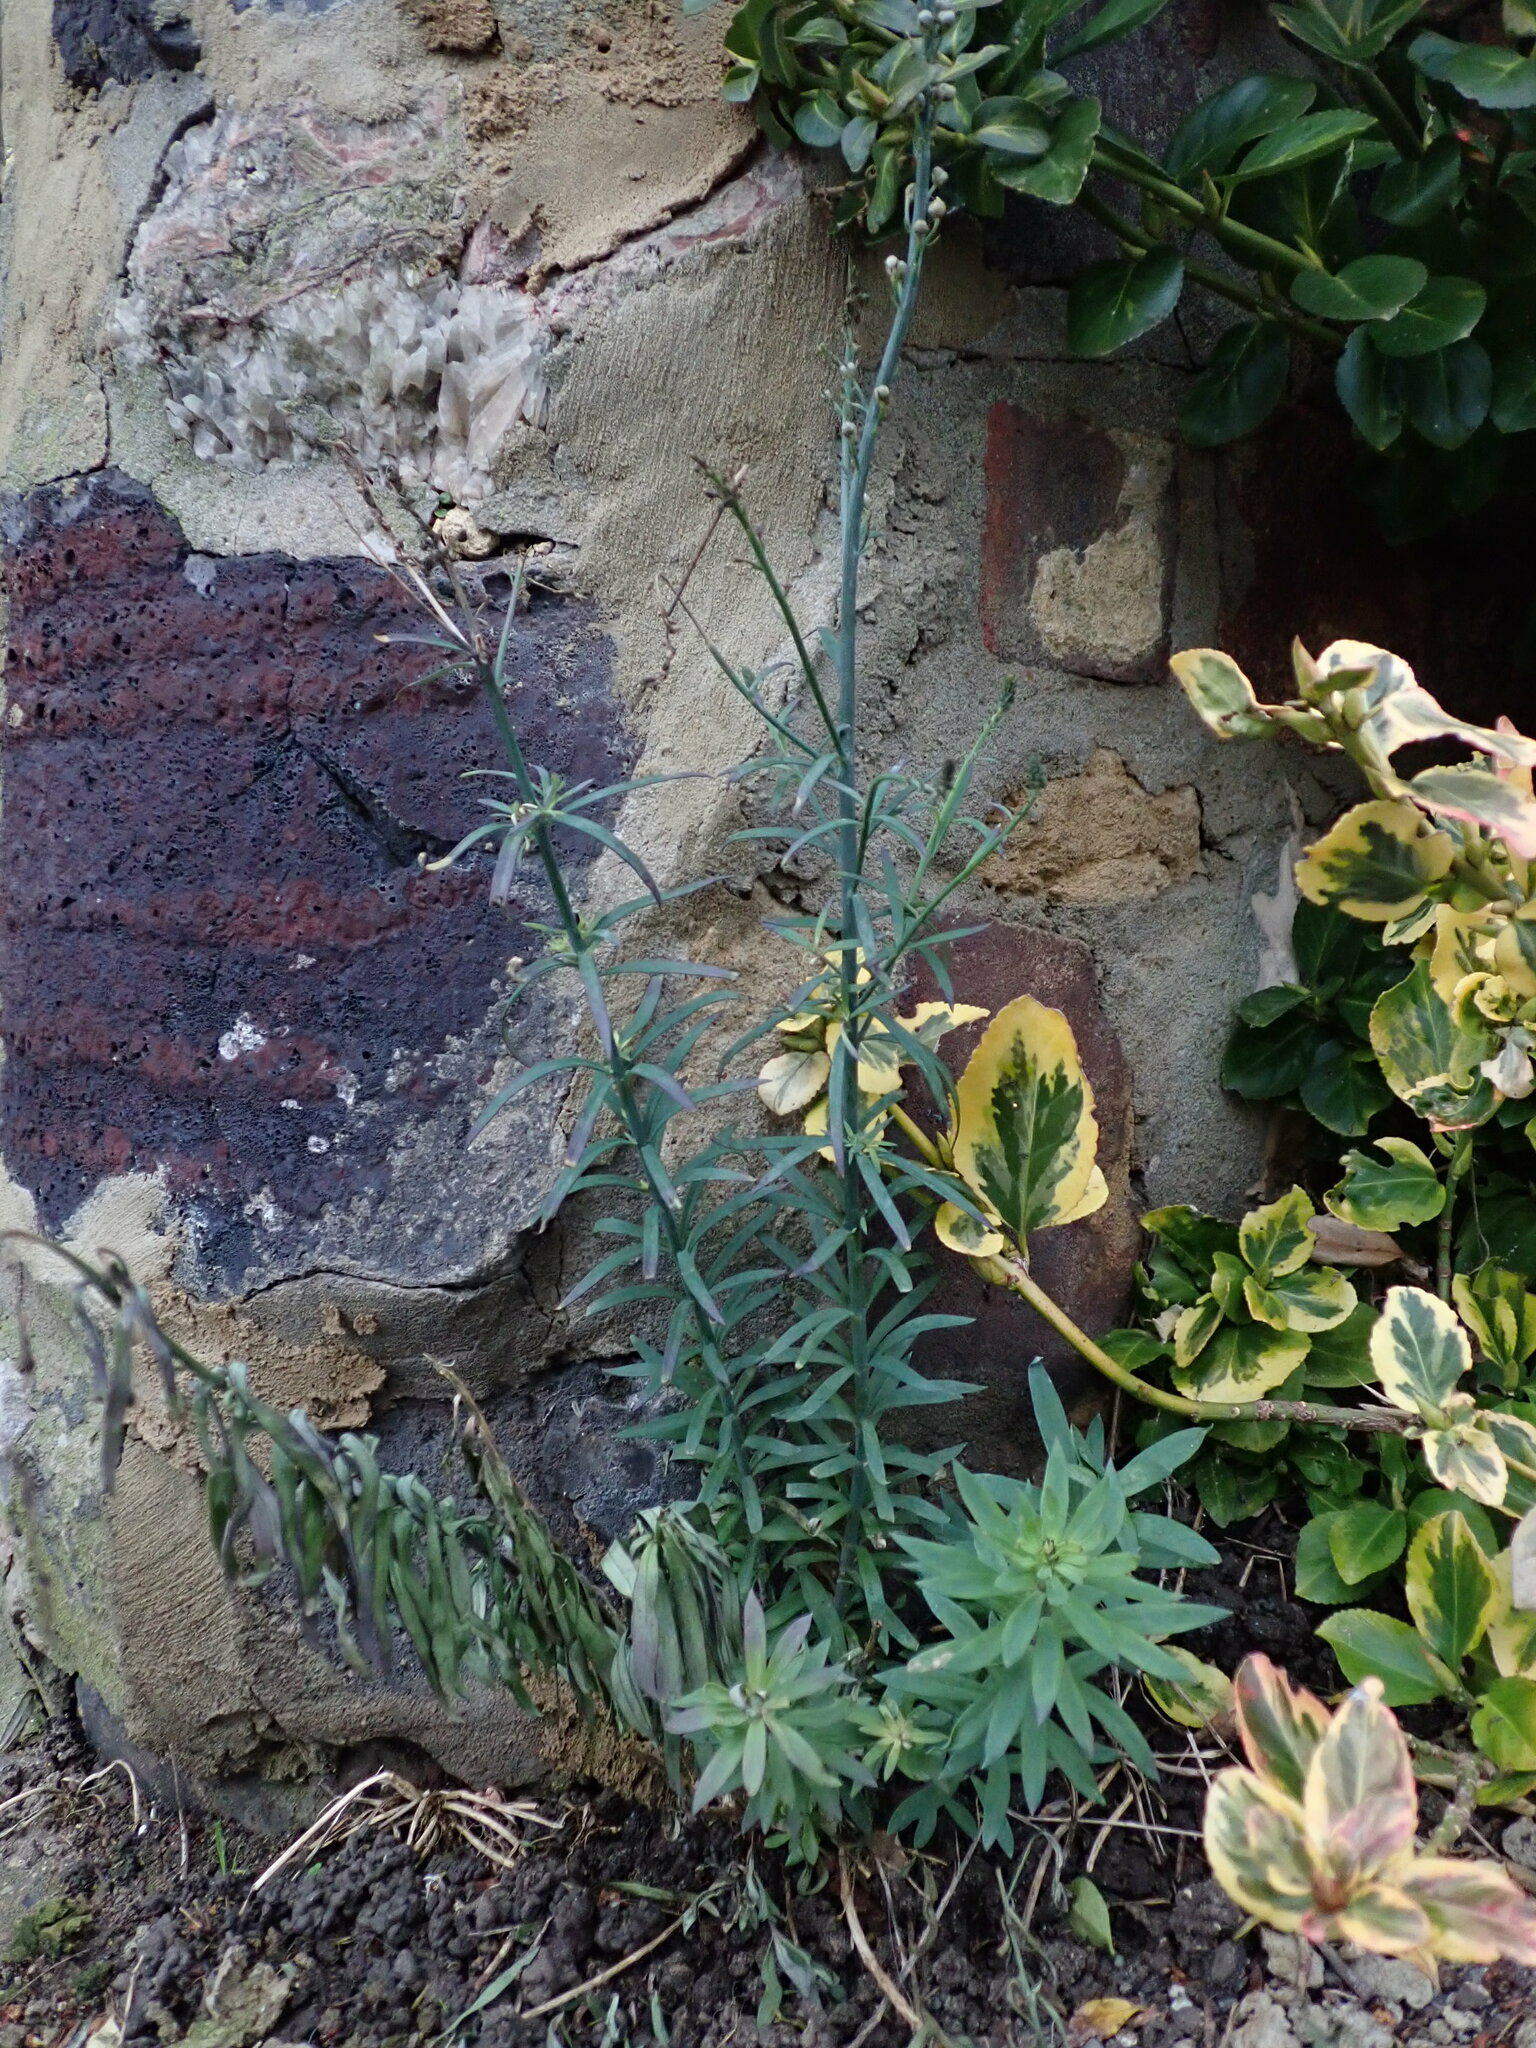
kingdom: Plantae
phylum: Tracheophyta
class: Magnoliopsida
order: Lamiales
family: Plantaginaceae
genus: Linaria
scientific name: Linaria purpurea
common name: Purple toadflax
